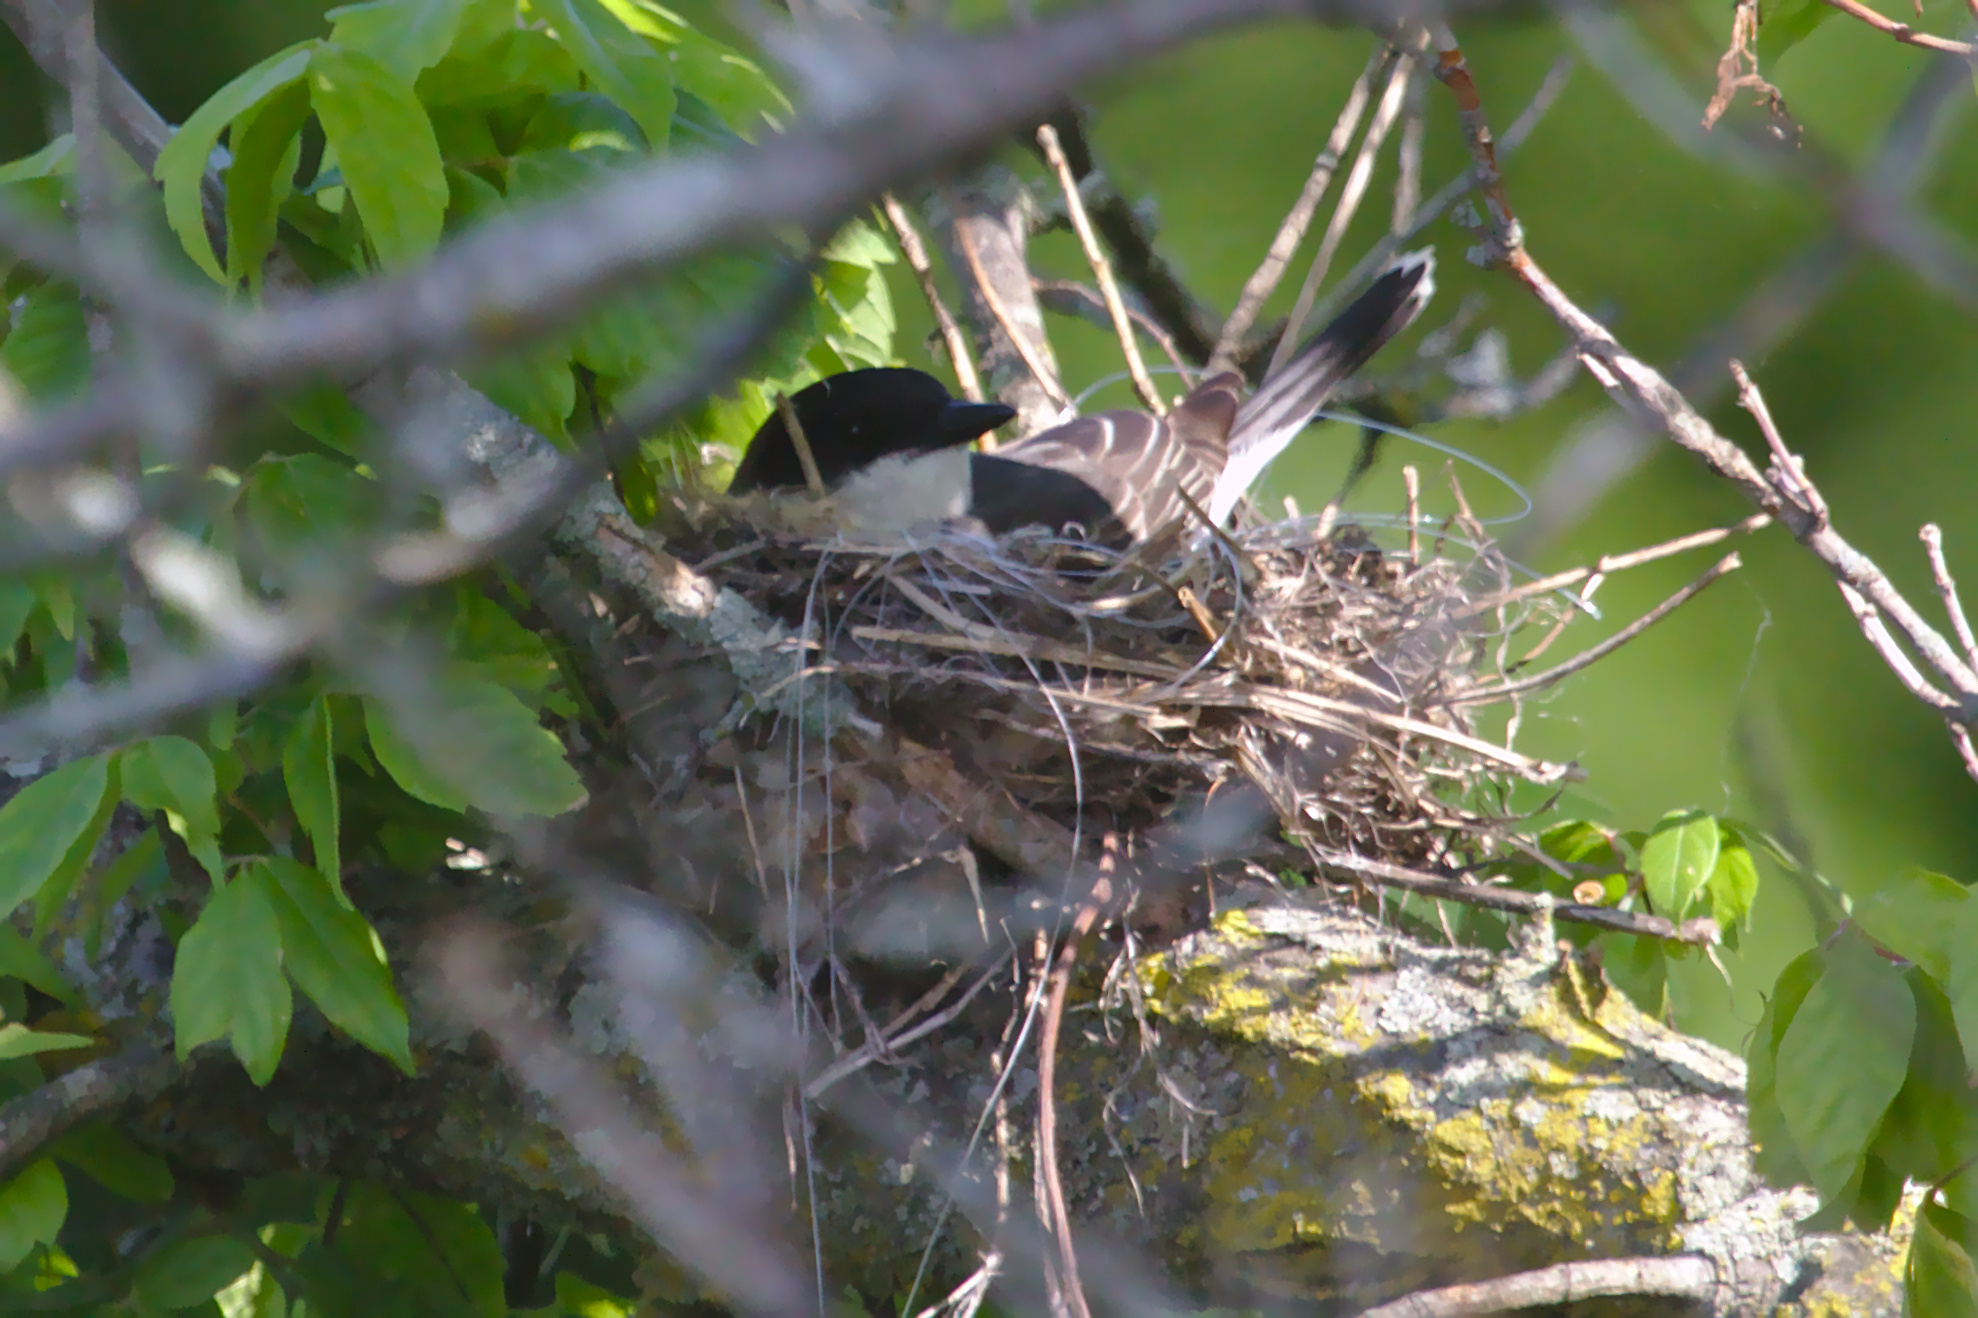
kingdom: Animalia
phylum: Chordata
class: Aves
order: Passeriformes
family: Tyrannidae
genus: Tyrannus
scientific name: Tyrannus tyrannus
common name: Eastern kingbird
